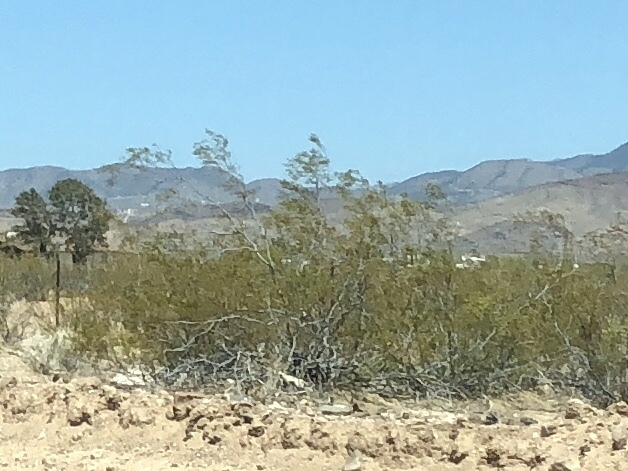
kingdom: Plantae
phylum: Tracheophyta
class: Magnoliopsida
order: Zygophyllales
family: Zygophyllaceae
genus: Larrea
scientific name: Larrea tridentata
